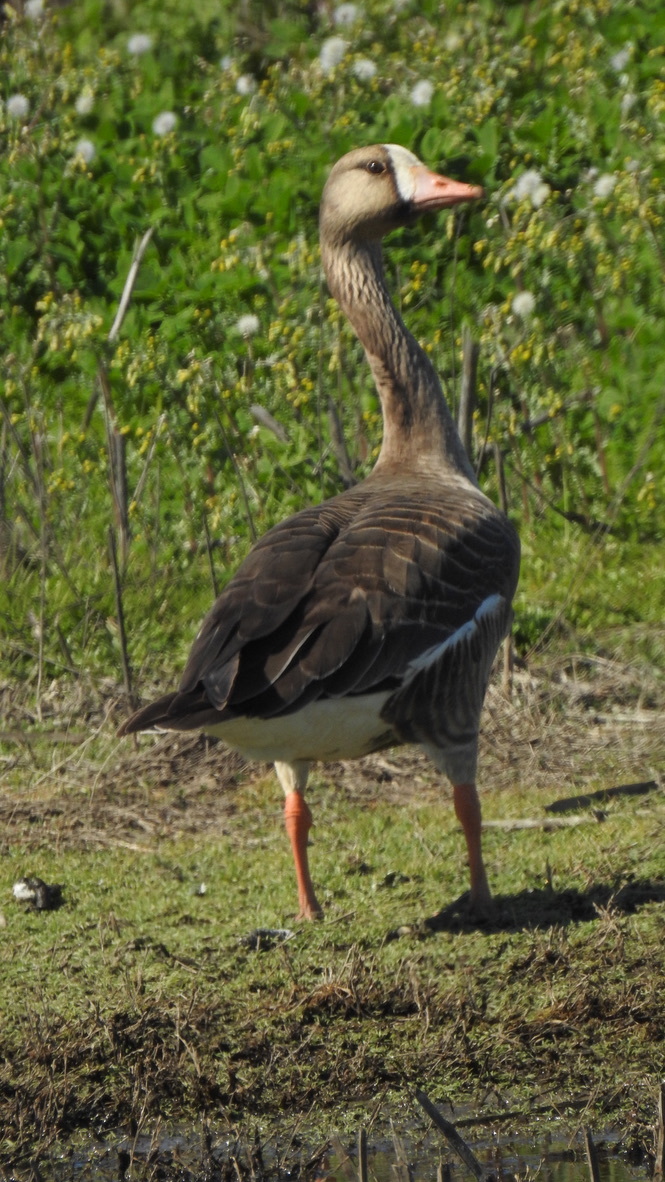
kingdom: Animalia
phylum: Chordata
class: Aves
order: Anseriformes
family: Anatidae
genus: Anser
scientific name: Anser albifrons
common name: Greater white-fronted goose
